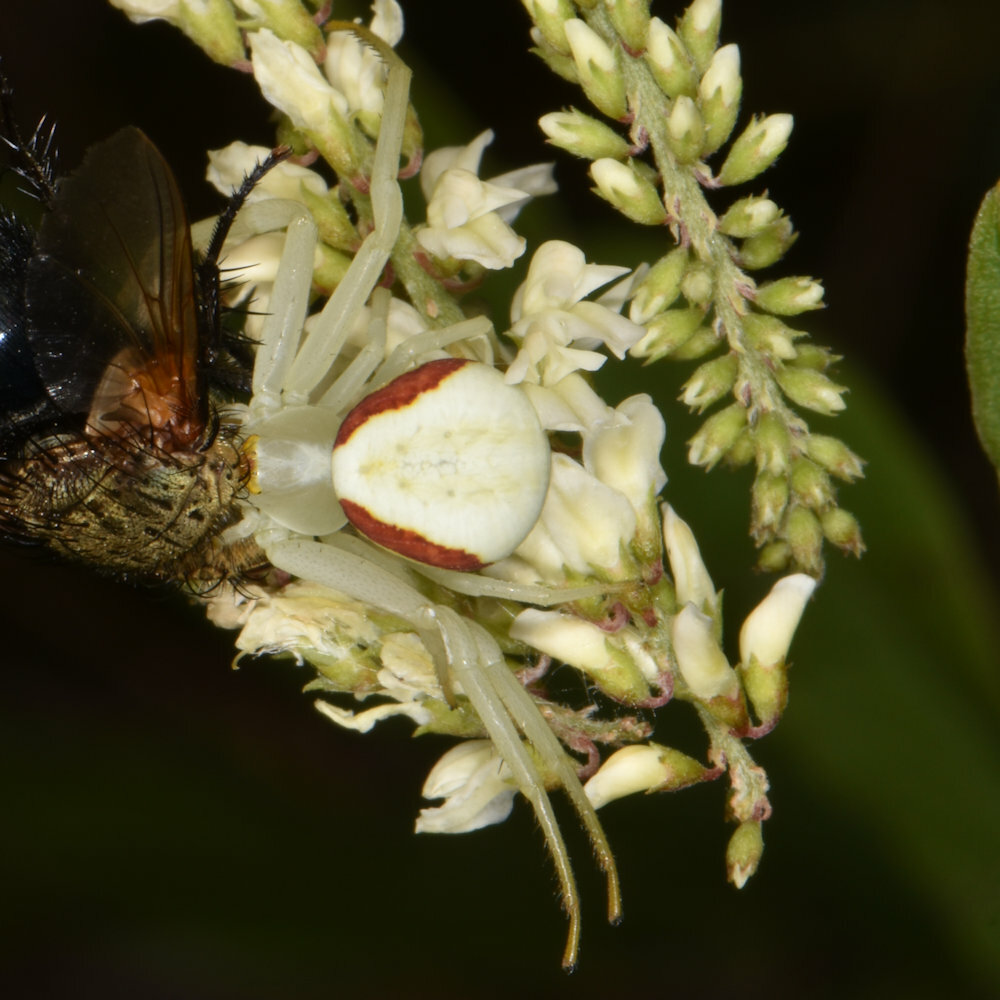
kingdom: Animalia
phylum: Arthropoda
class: Arachnida
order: Araneae
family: Thomisidae
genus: Misumena
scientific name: Misumena vatia
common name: Goldenrod crab spider
